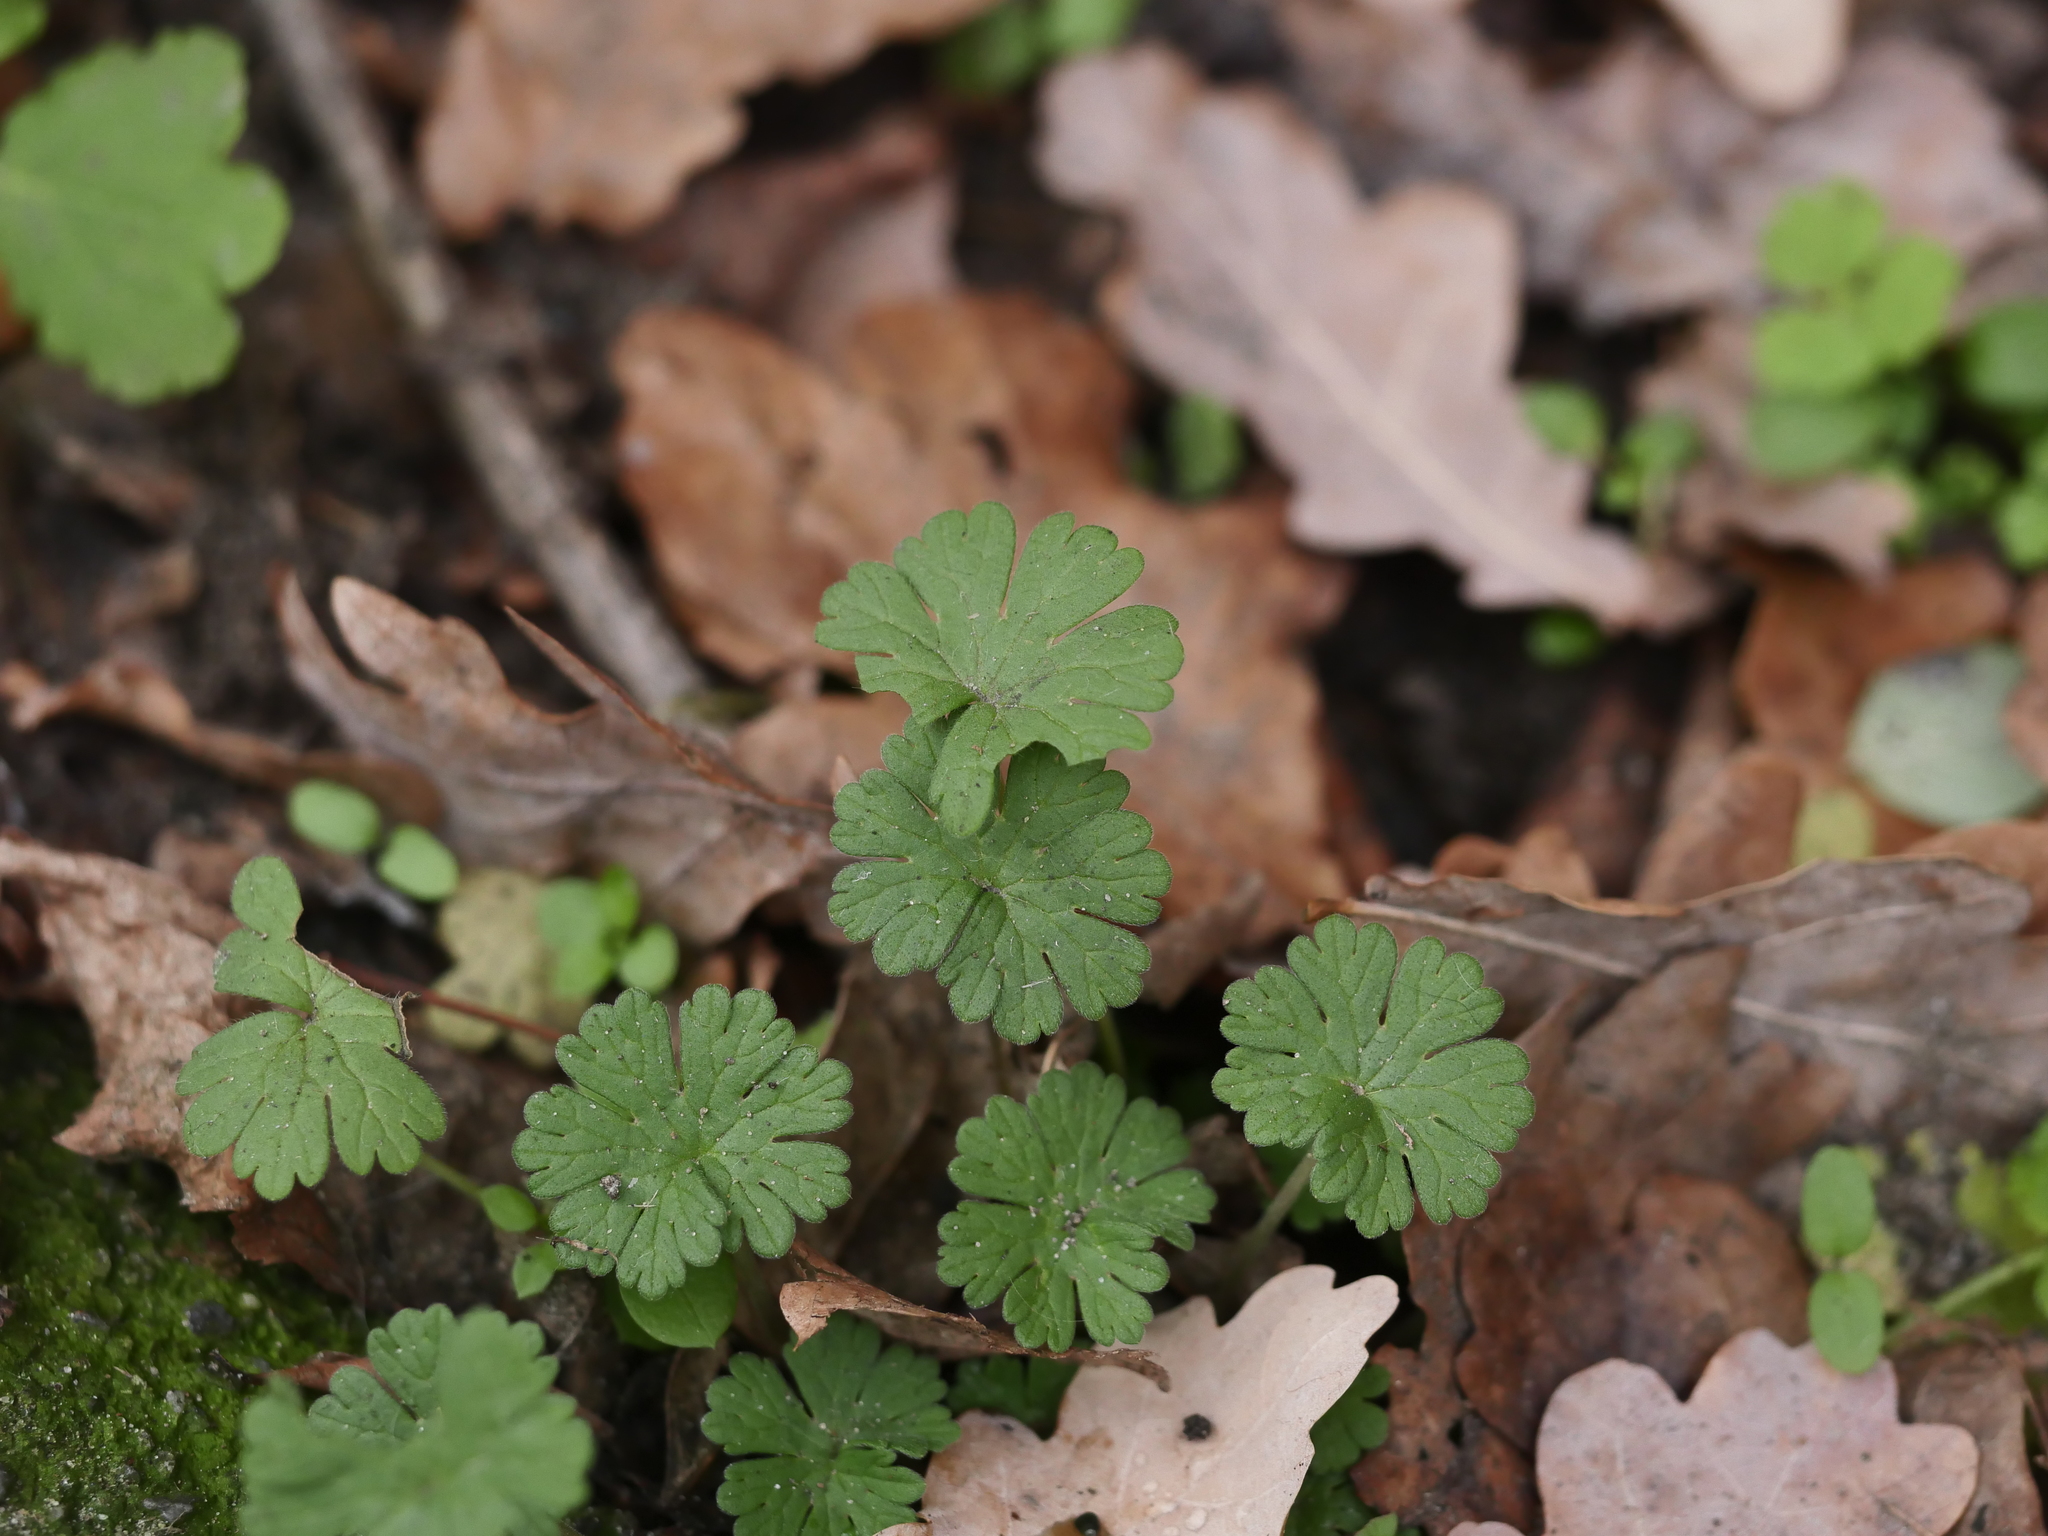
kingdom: Plantae
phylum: Tracheophyta
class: Magnoliopsida
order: Geraniales
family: Geraniaceae
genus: Geranium
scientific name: Geranium molle
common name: Dove's-foot crane's-bill
